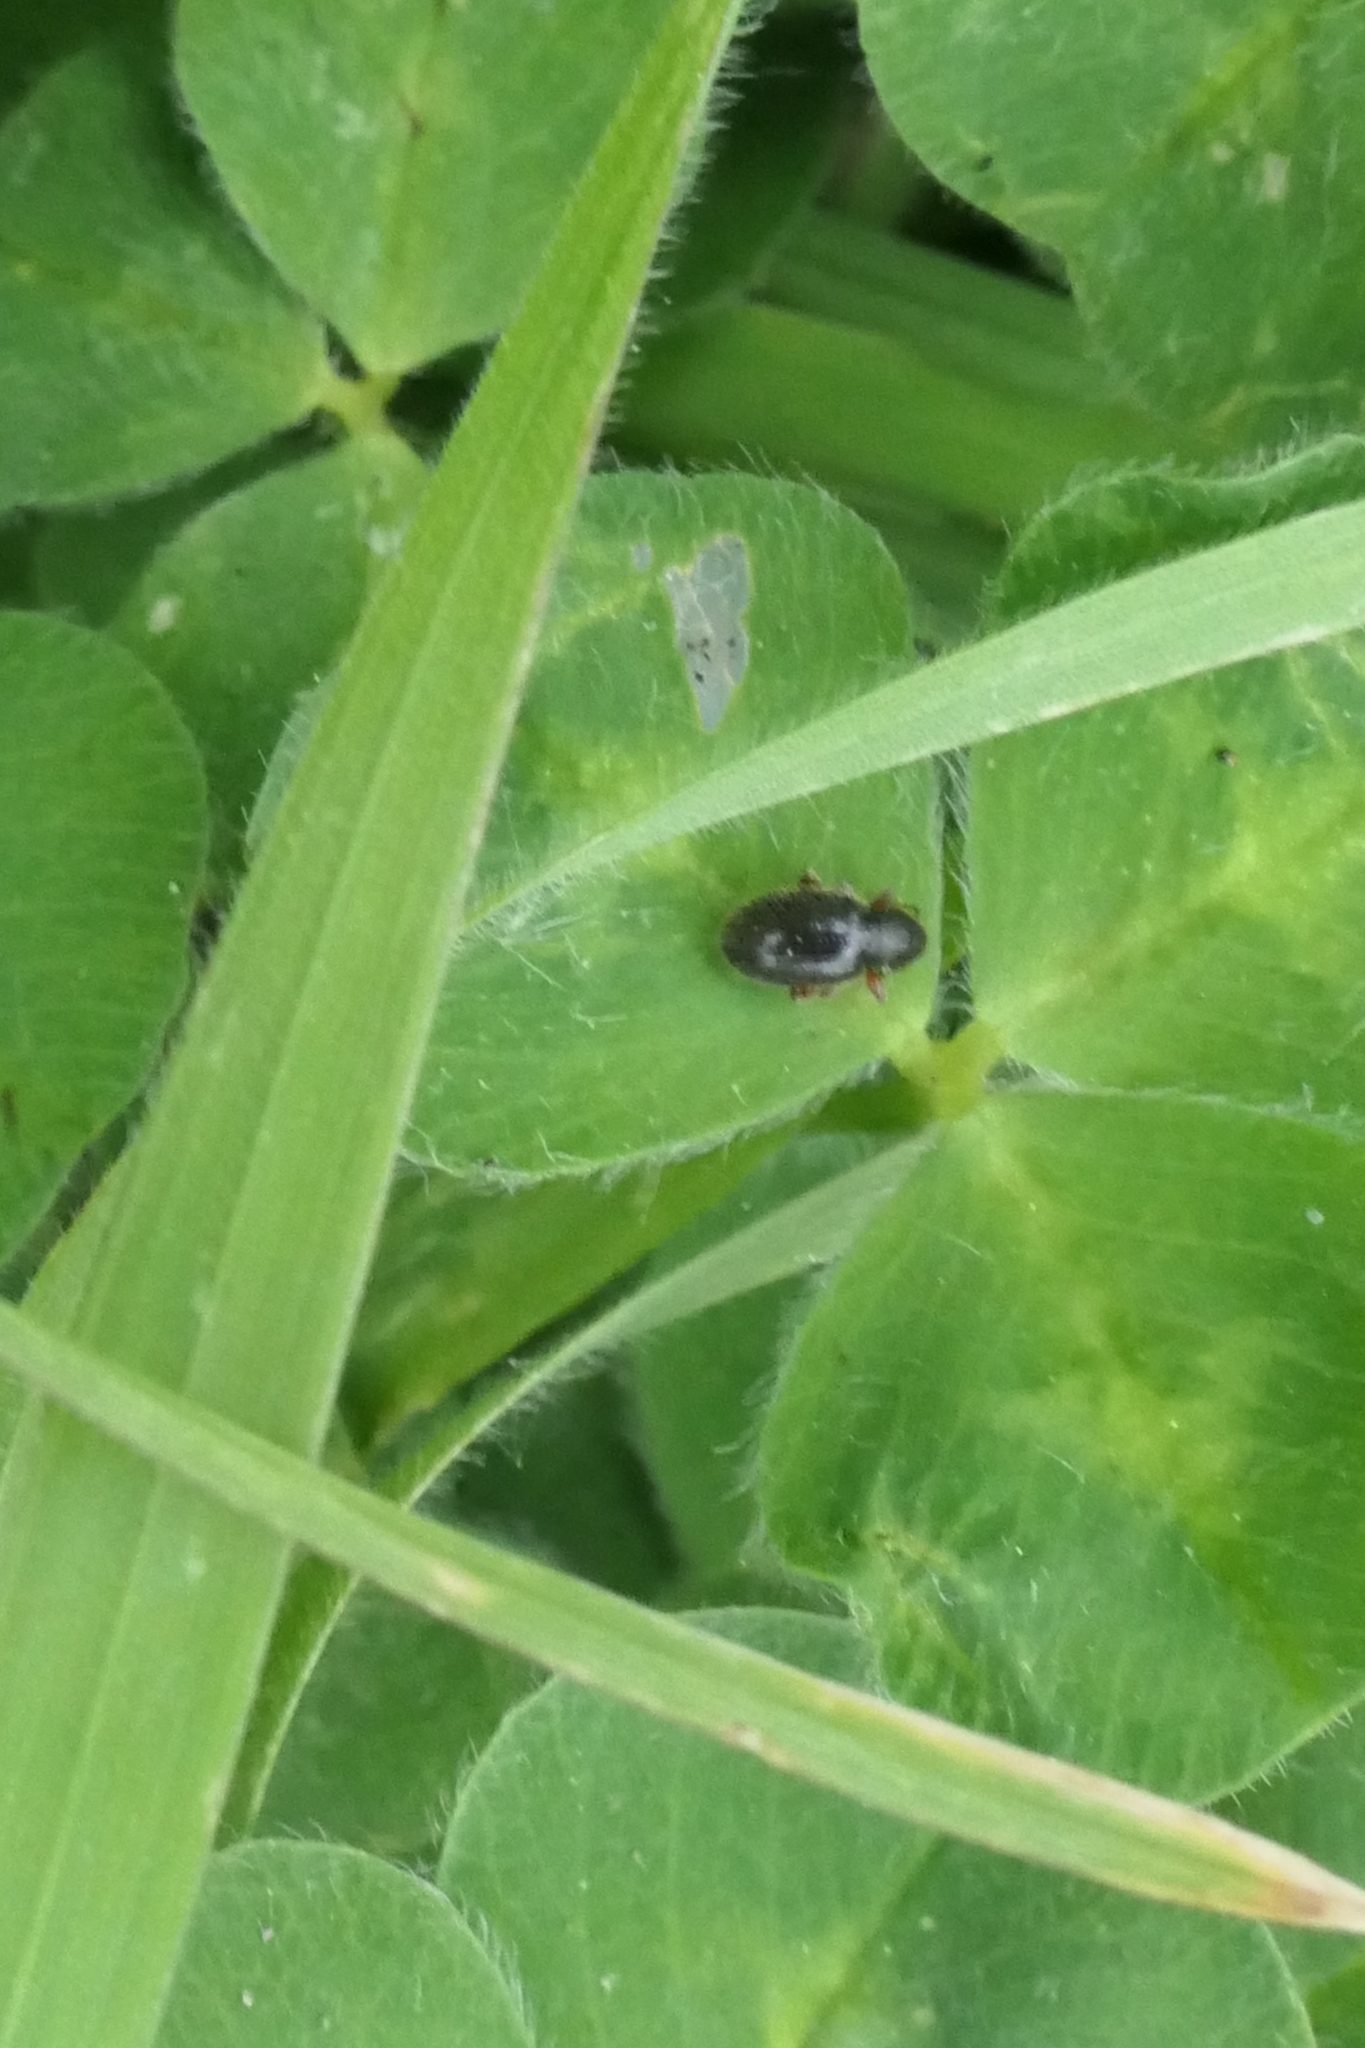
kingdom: Animalia
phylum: Arthropoda
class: Insecta
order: Coleoptera
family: Curculionidae
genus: Exomias
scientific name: Exomias pellucidus
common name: Hairy spider weevil
